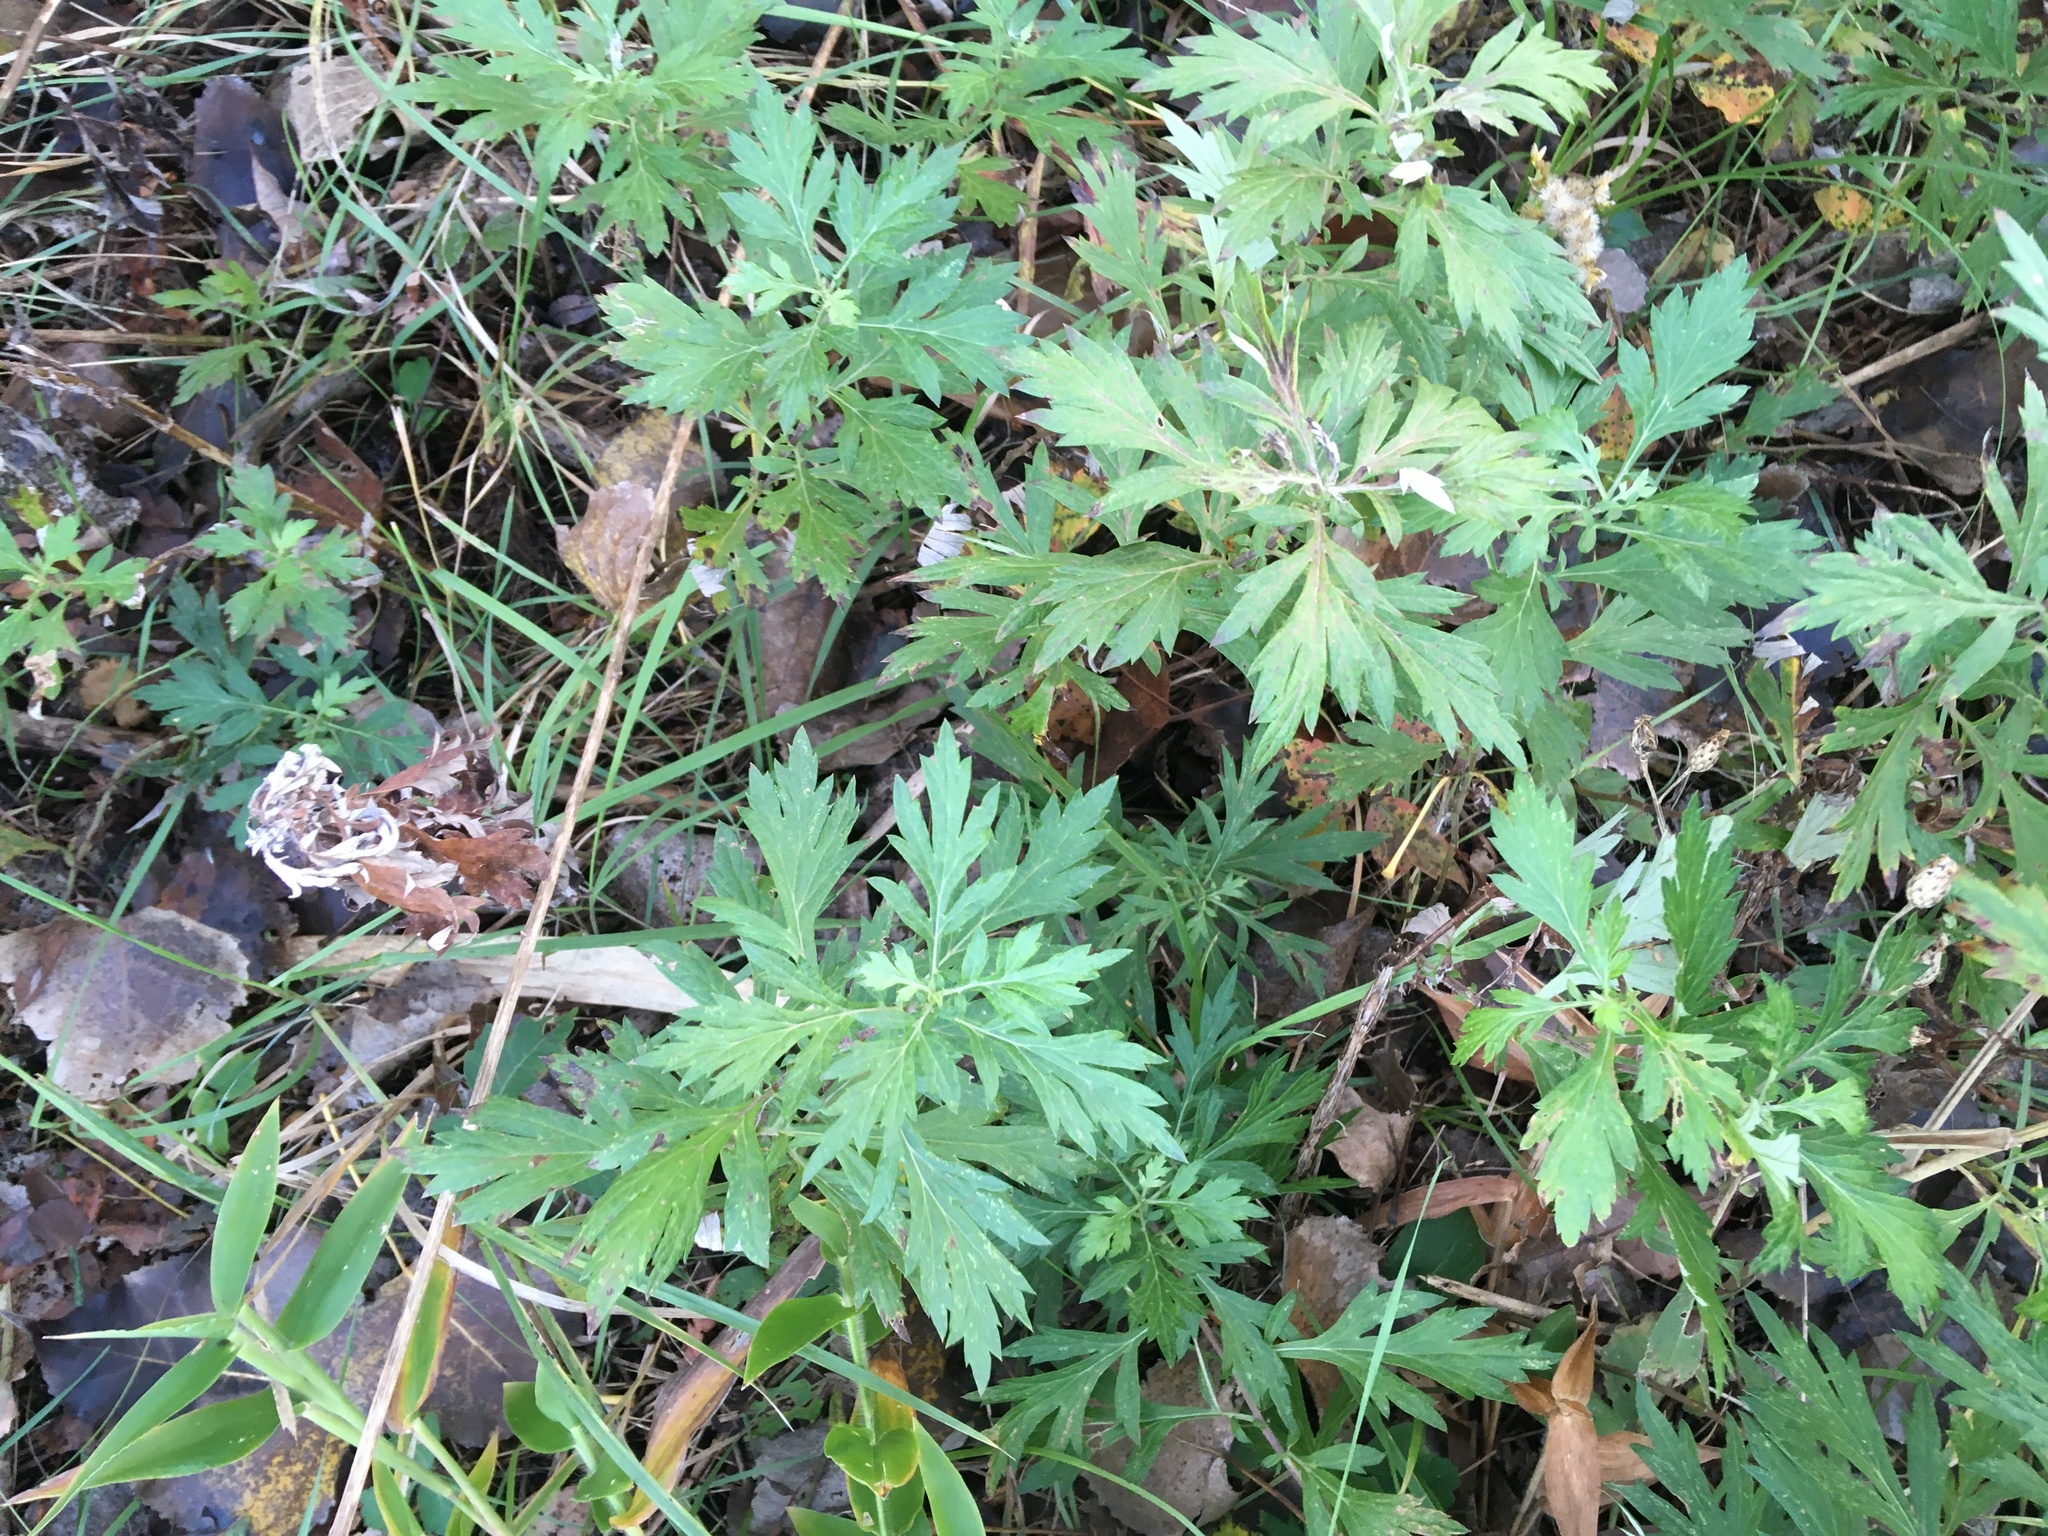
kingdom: Plantae
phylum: Tracheophyta
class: Magnoliopsida
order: Asterales
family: Asteraceae
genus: Artemisia
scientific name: Artemisia vulgaris
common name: Mugwort
